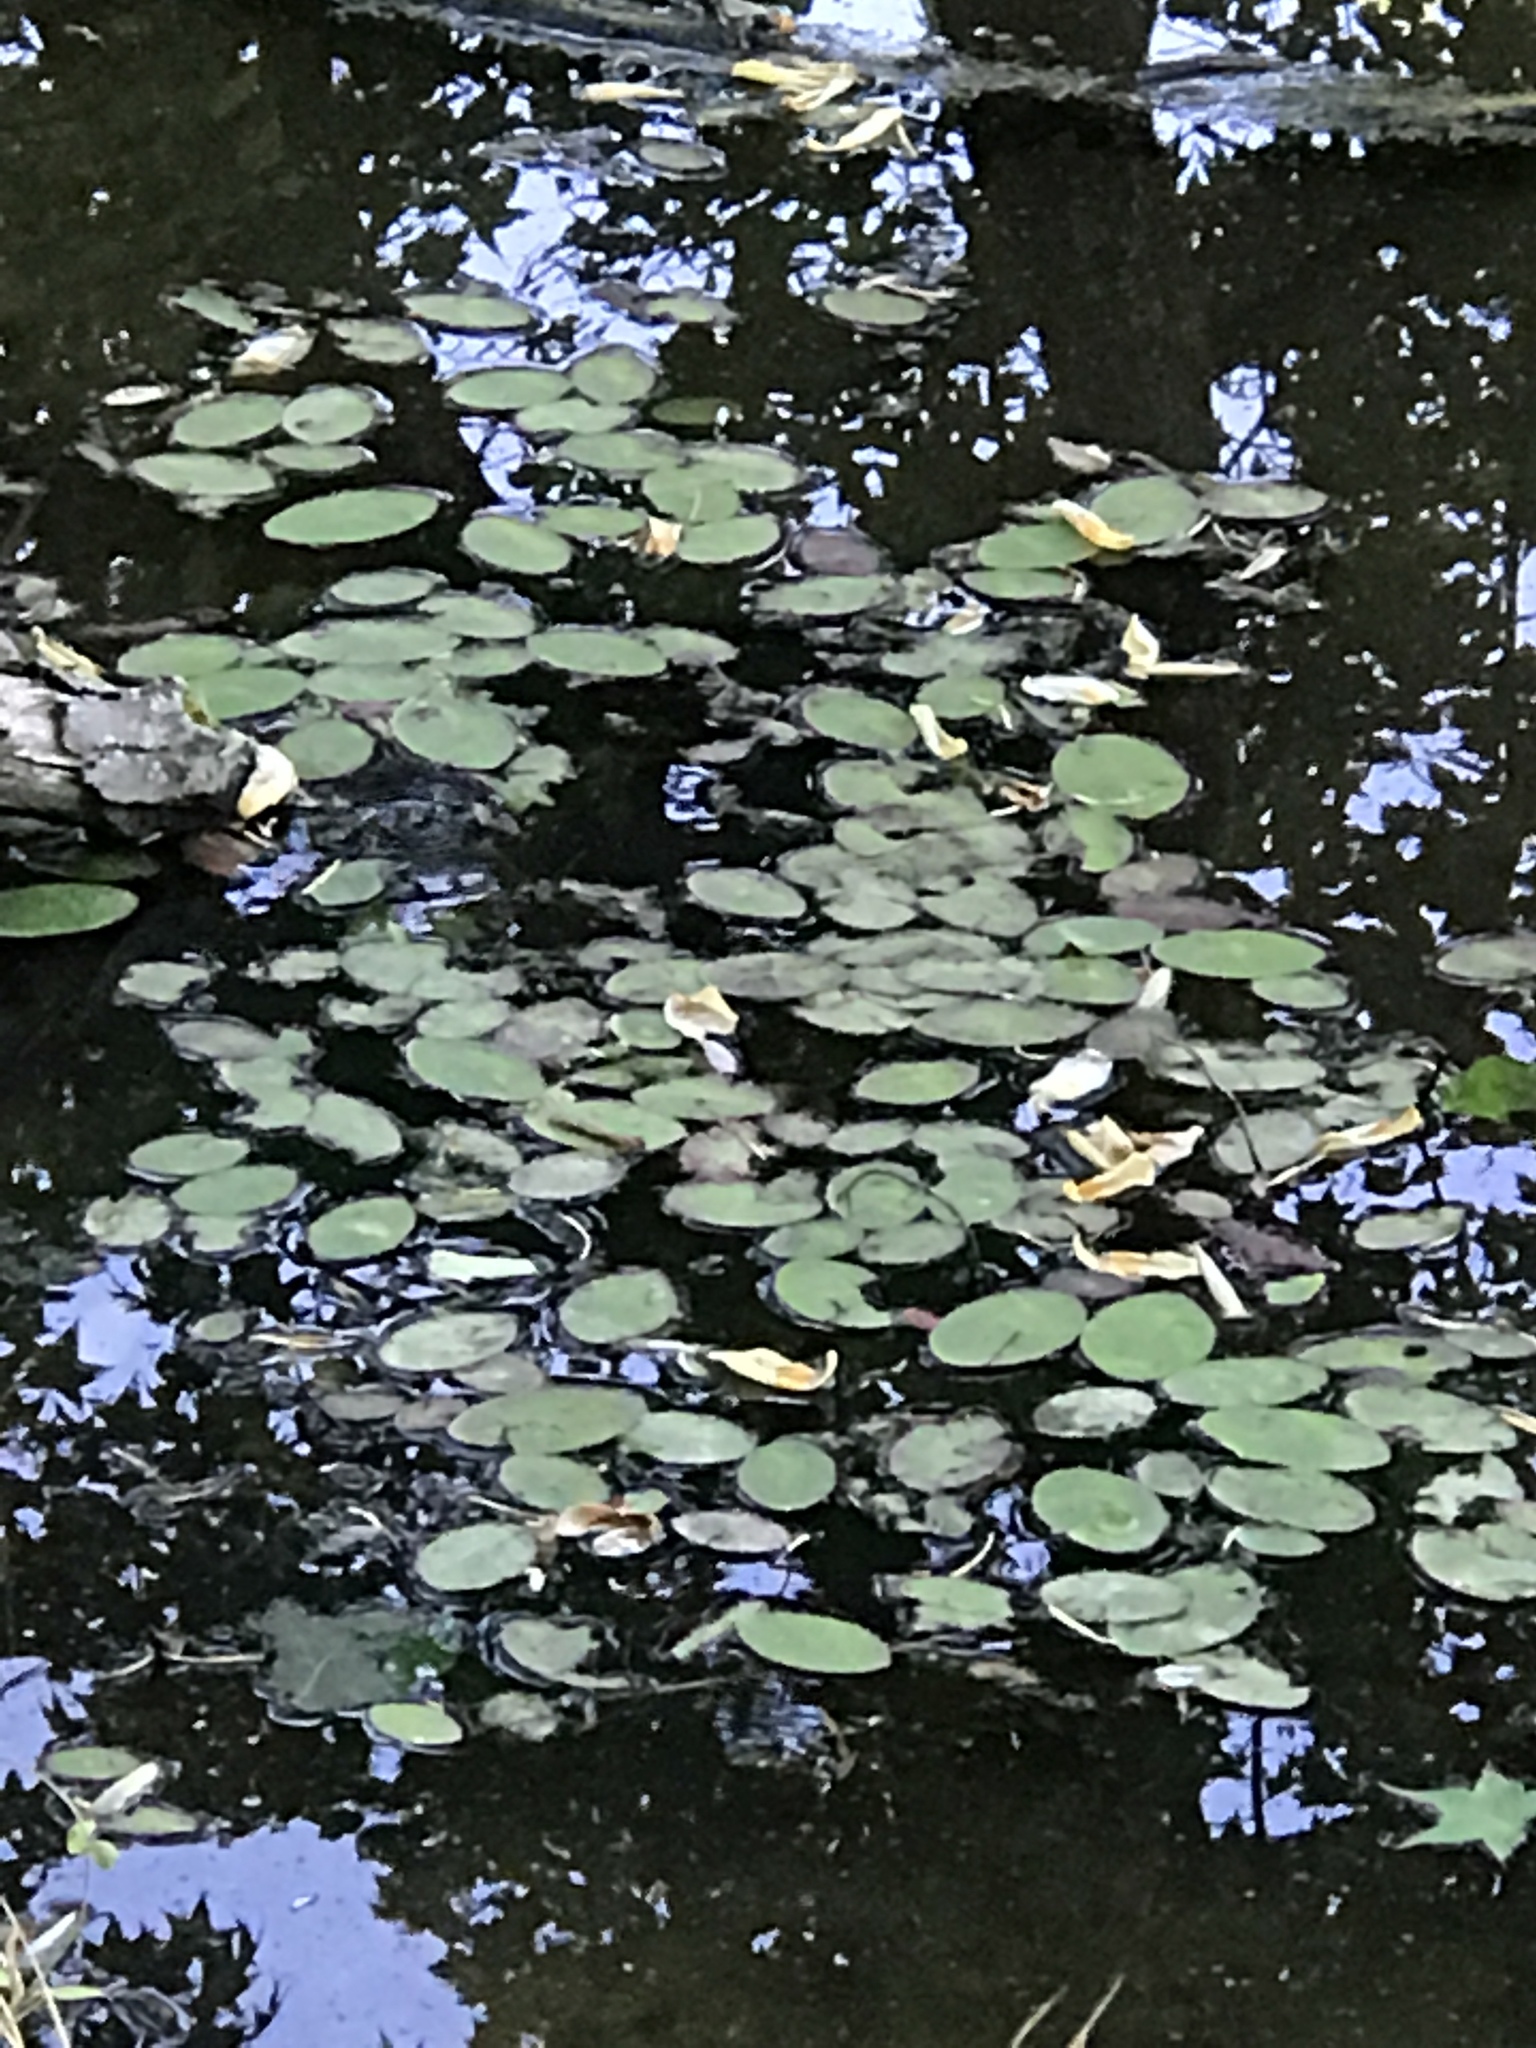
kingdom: Plantae
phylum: Tracheophyta
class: Magnoliopsida
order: Nymphaeales
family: Cabombaceae
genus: Brasenia
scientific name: Brasenia schreberi
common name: Water-shield
